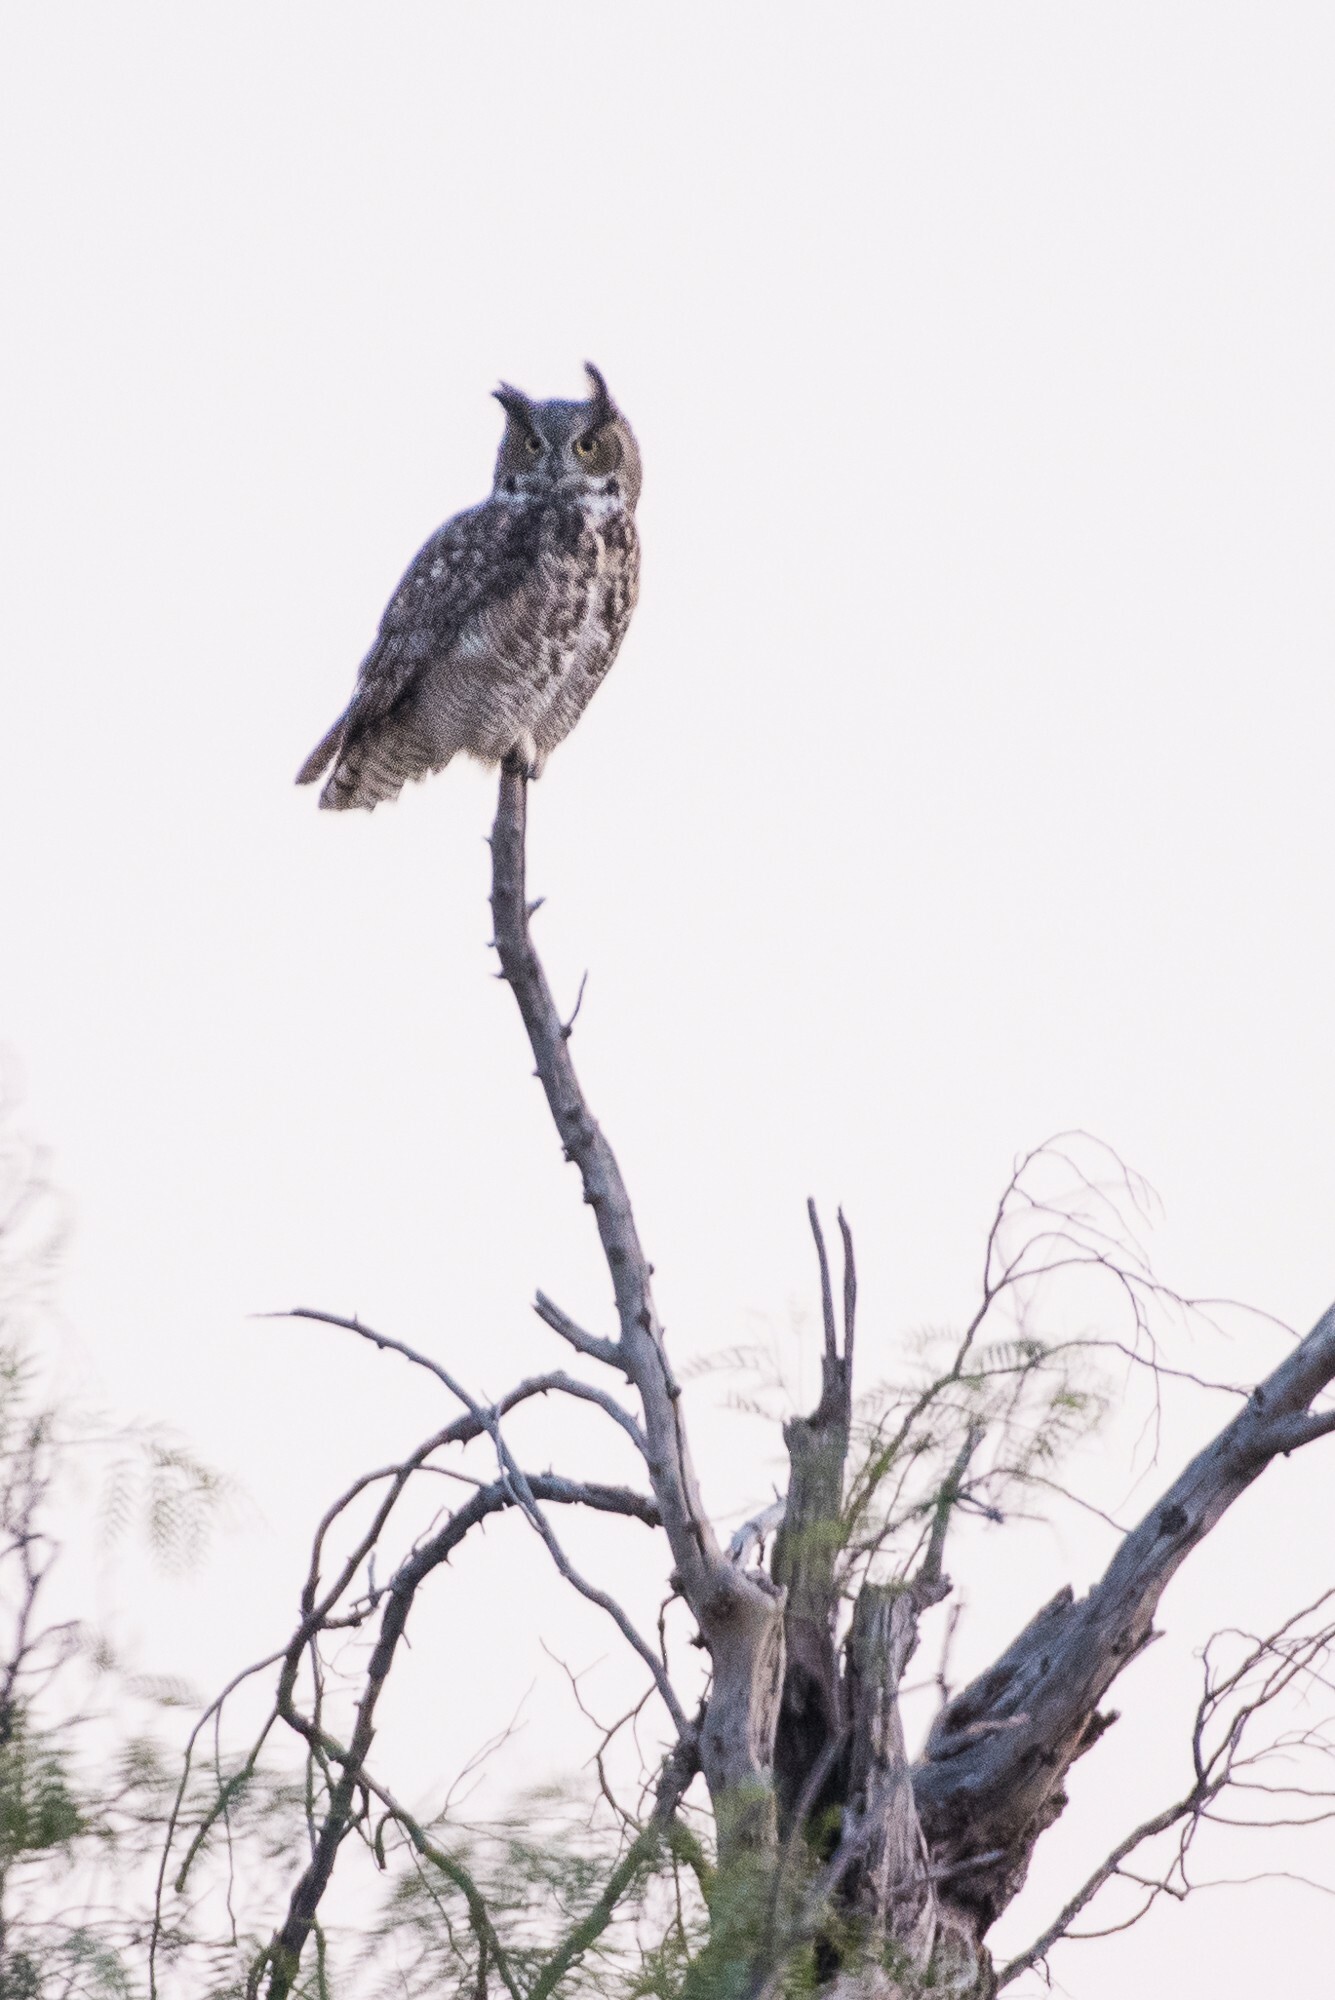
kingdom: Animalia
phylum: Chordata
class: Aves
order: Strigiformes
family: Strigidae
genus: Bubo
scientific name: Bubo virginianus
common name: Great horned owl
